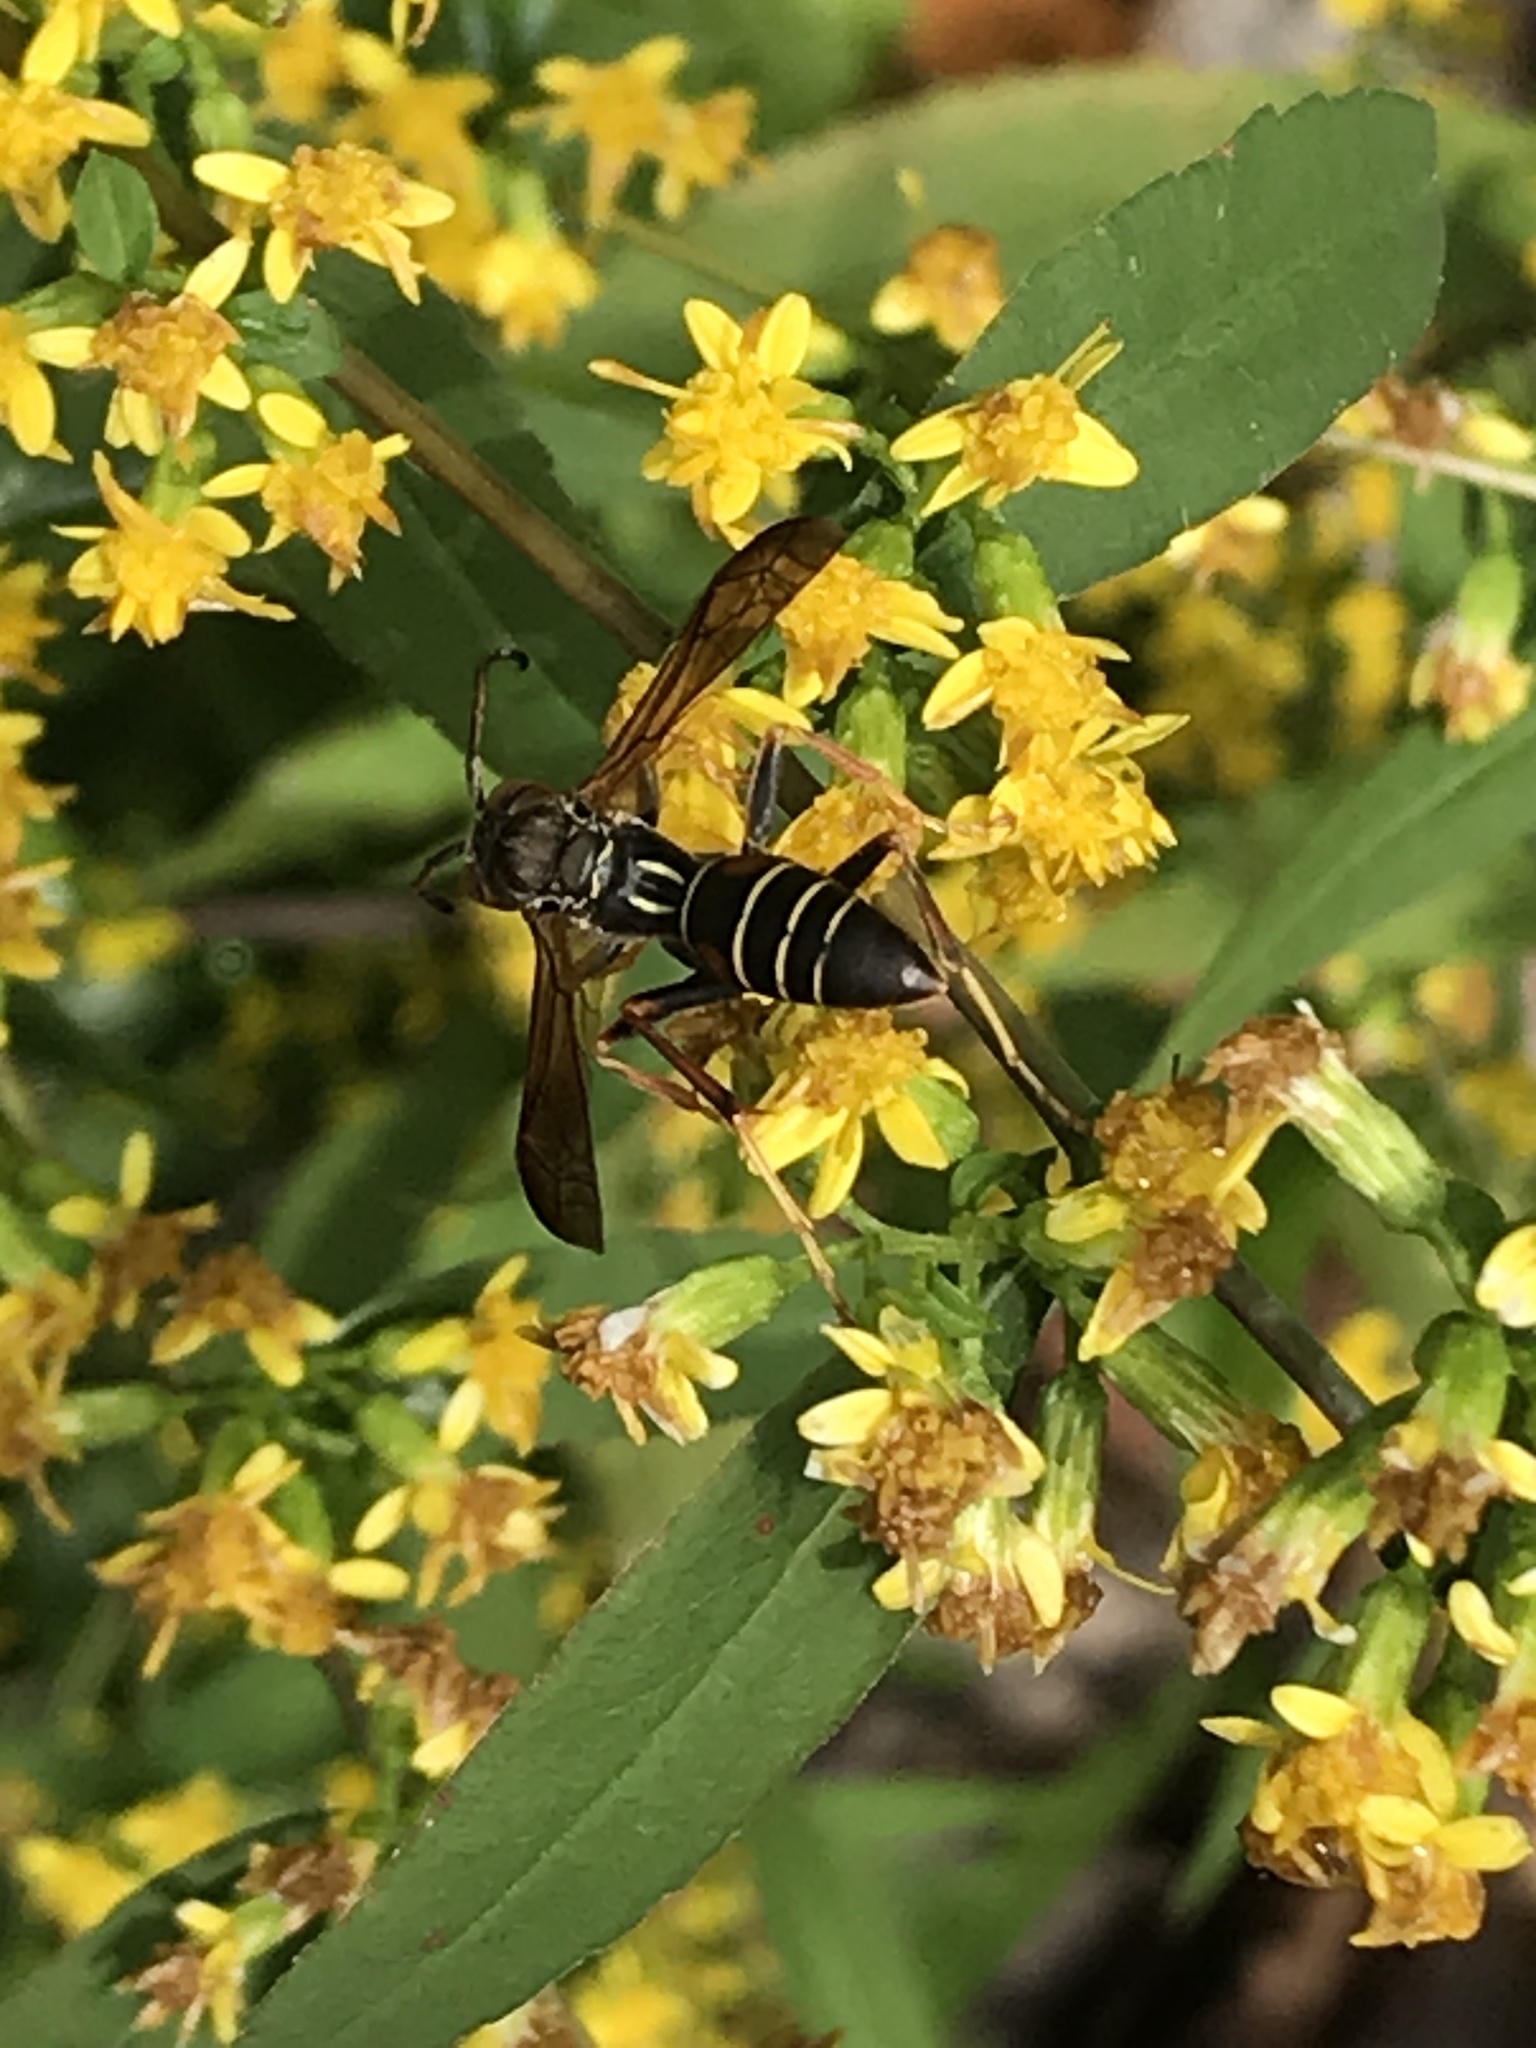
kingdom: Animalia
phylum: Arthropoda
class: Insecta
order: Hymenoptera
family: Eumenidae
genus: Polistes
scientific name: Polistes fuscatus
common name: Dark paper wasp
